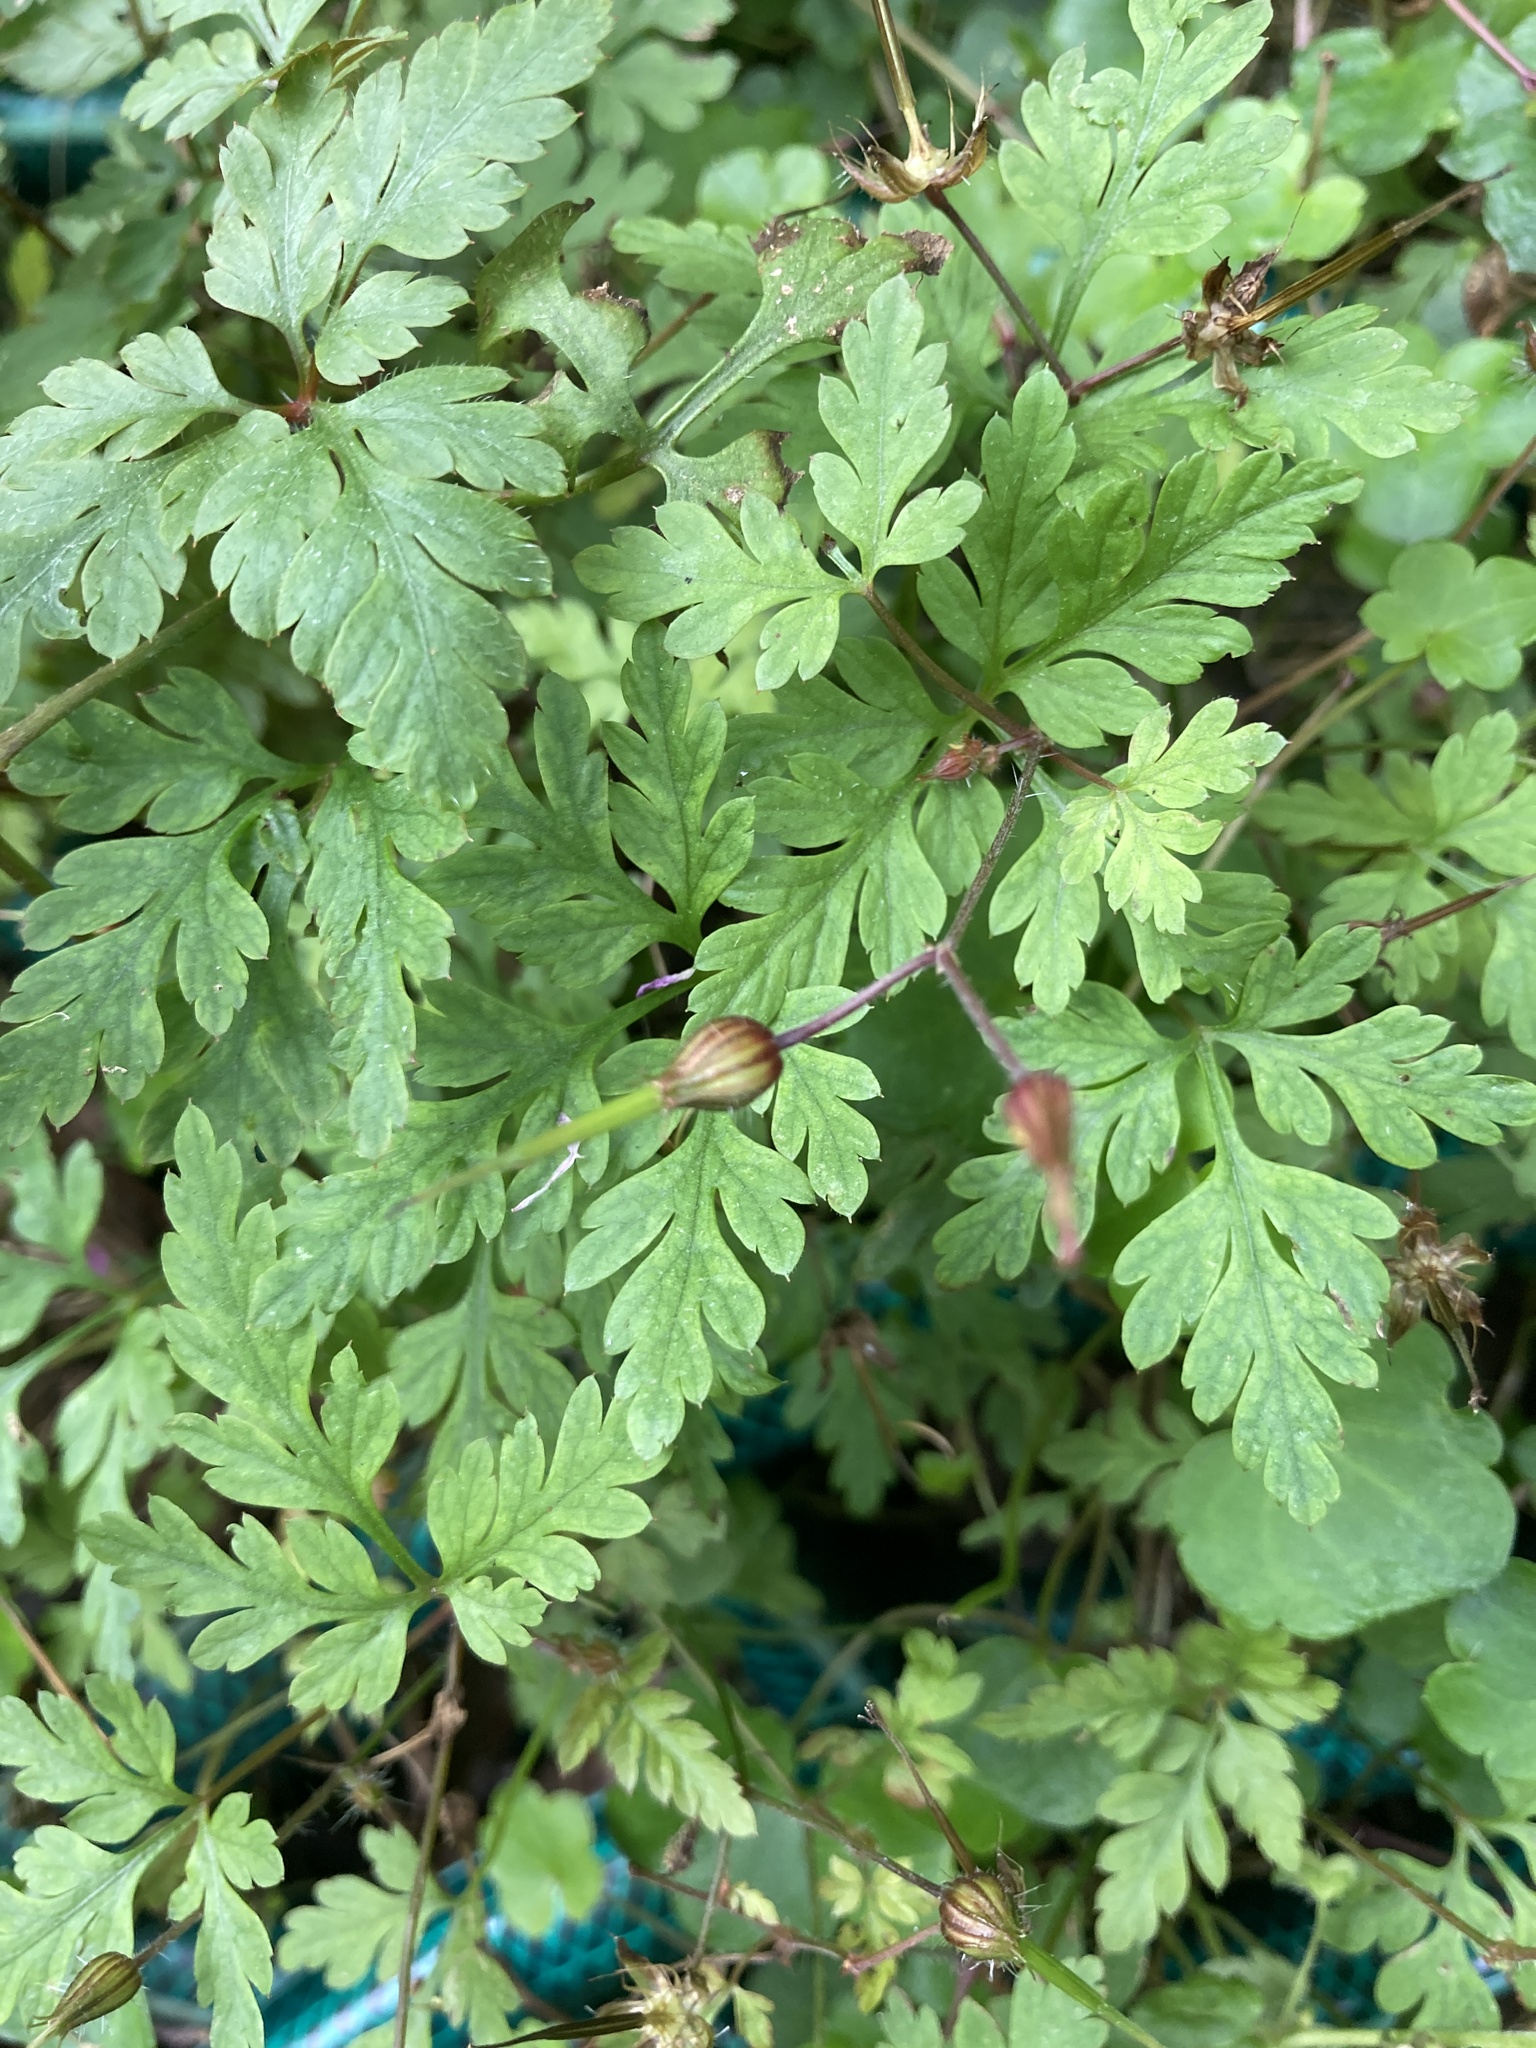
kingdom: Plantae
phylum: Tracheophyta
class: Magnoliopsida
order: Geraniales
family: Geraniaceae
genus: Geranium
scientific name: Geranium robertianum
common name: Herb-robert
